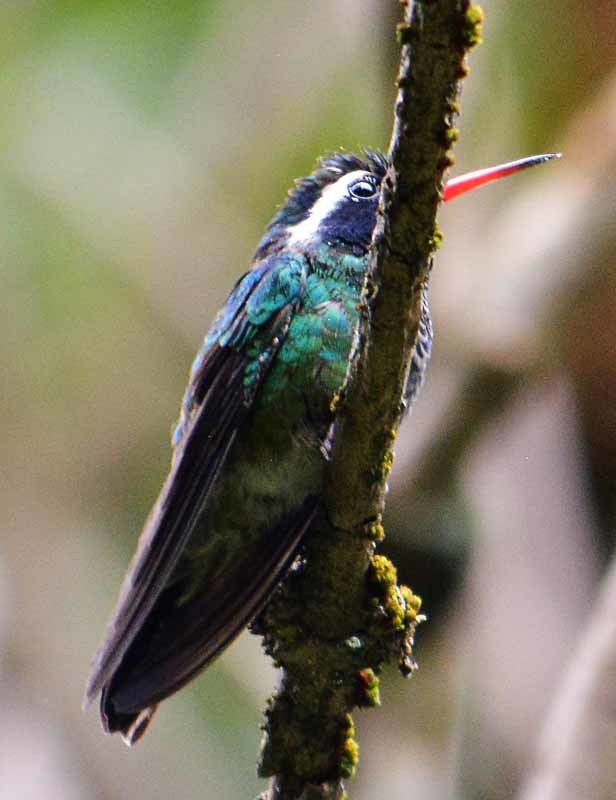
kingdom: Animalia
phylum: Chordata
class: Aves
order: Apodiformes
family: Trochilidae
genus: Basilinna
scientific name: Basilinna leucotis
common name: White-eared hummingbird
